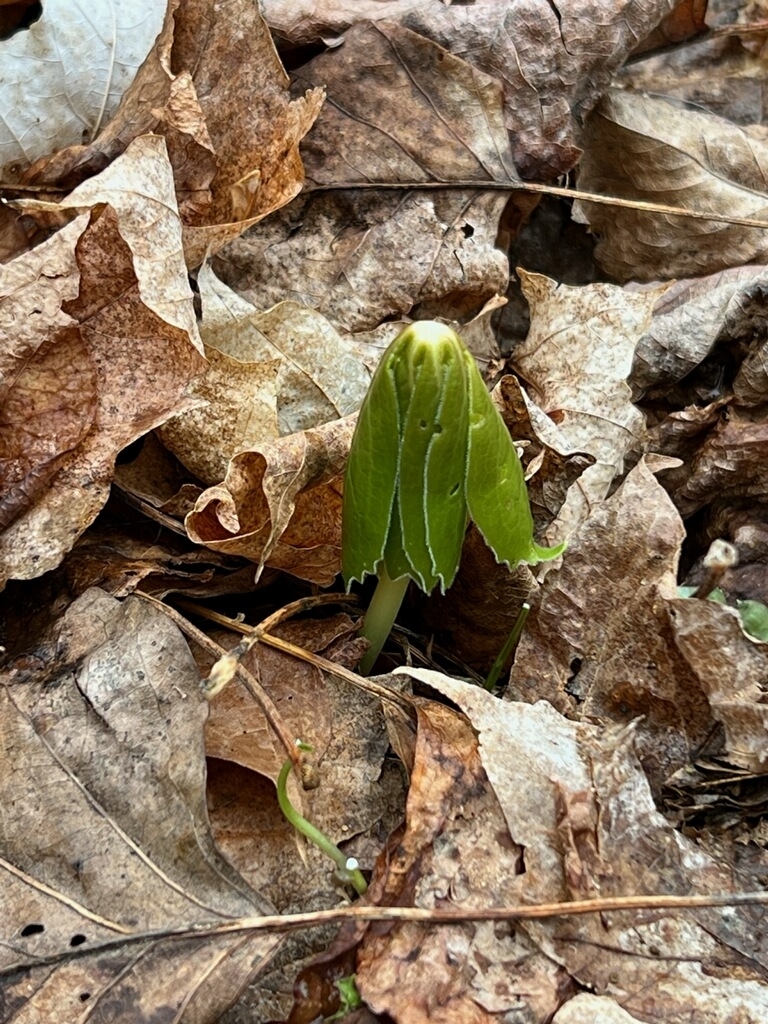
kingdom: Plantae
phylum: Tracheophyta
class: Magnoliopsida
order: Ranunculales
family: Berberidaceae
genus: Podophyllum
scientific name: Podophyllum peltatum
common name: Wild mandrake
